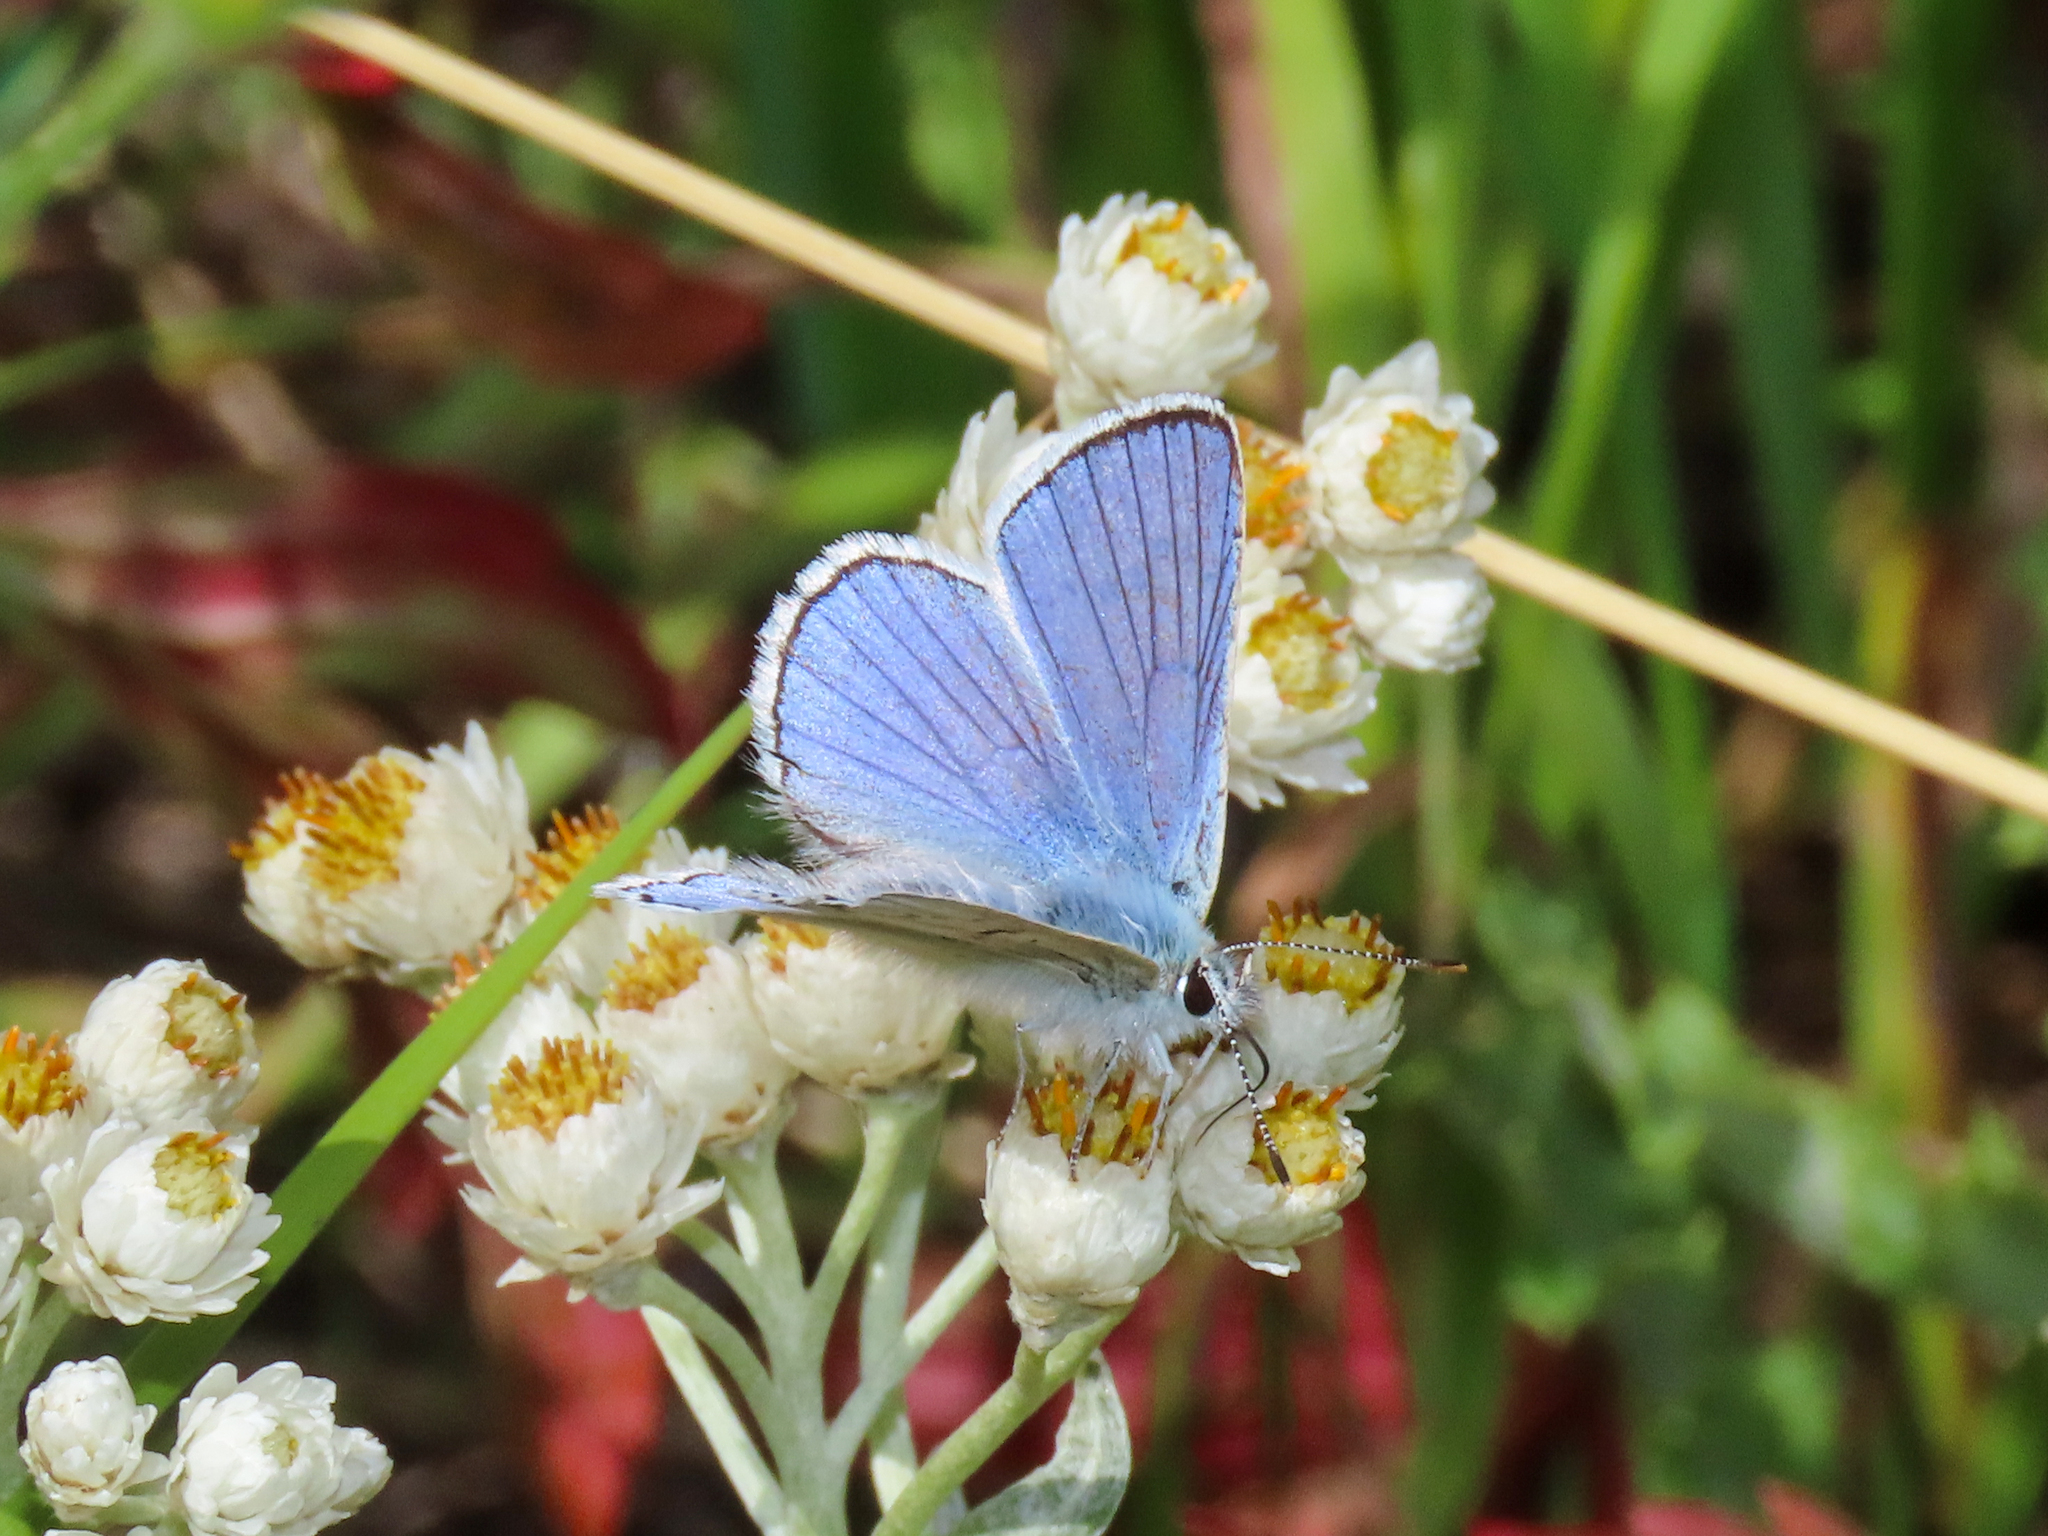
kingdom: Animalia
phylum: Arthropoda
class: Insecta
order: Lepidoptera
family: Lycaenidae
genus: Tharsalea
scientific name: Tharsalea heteronea
